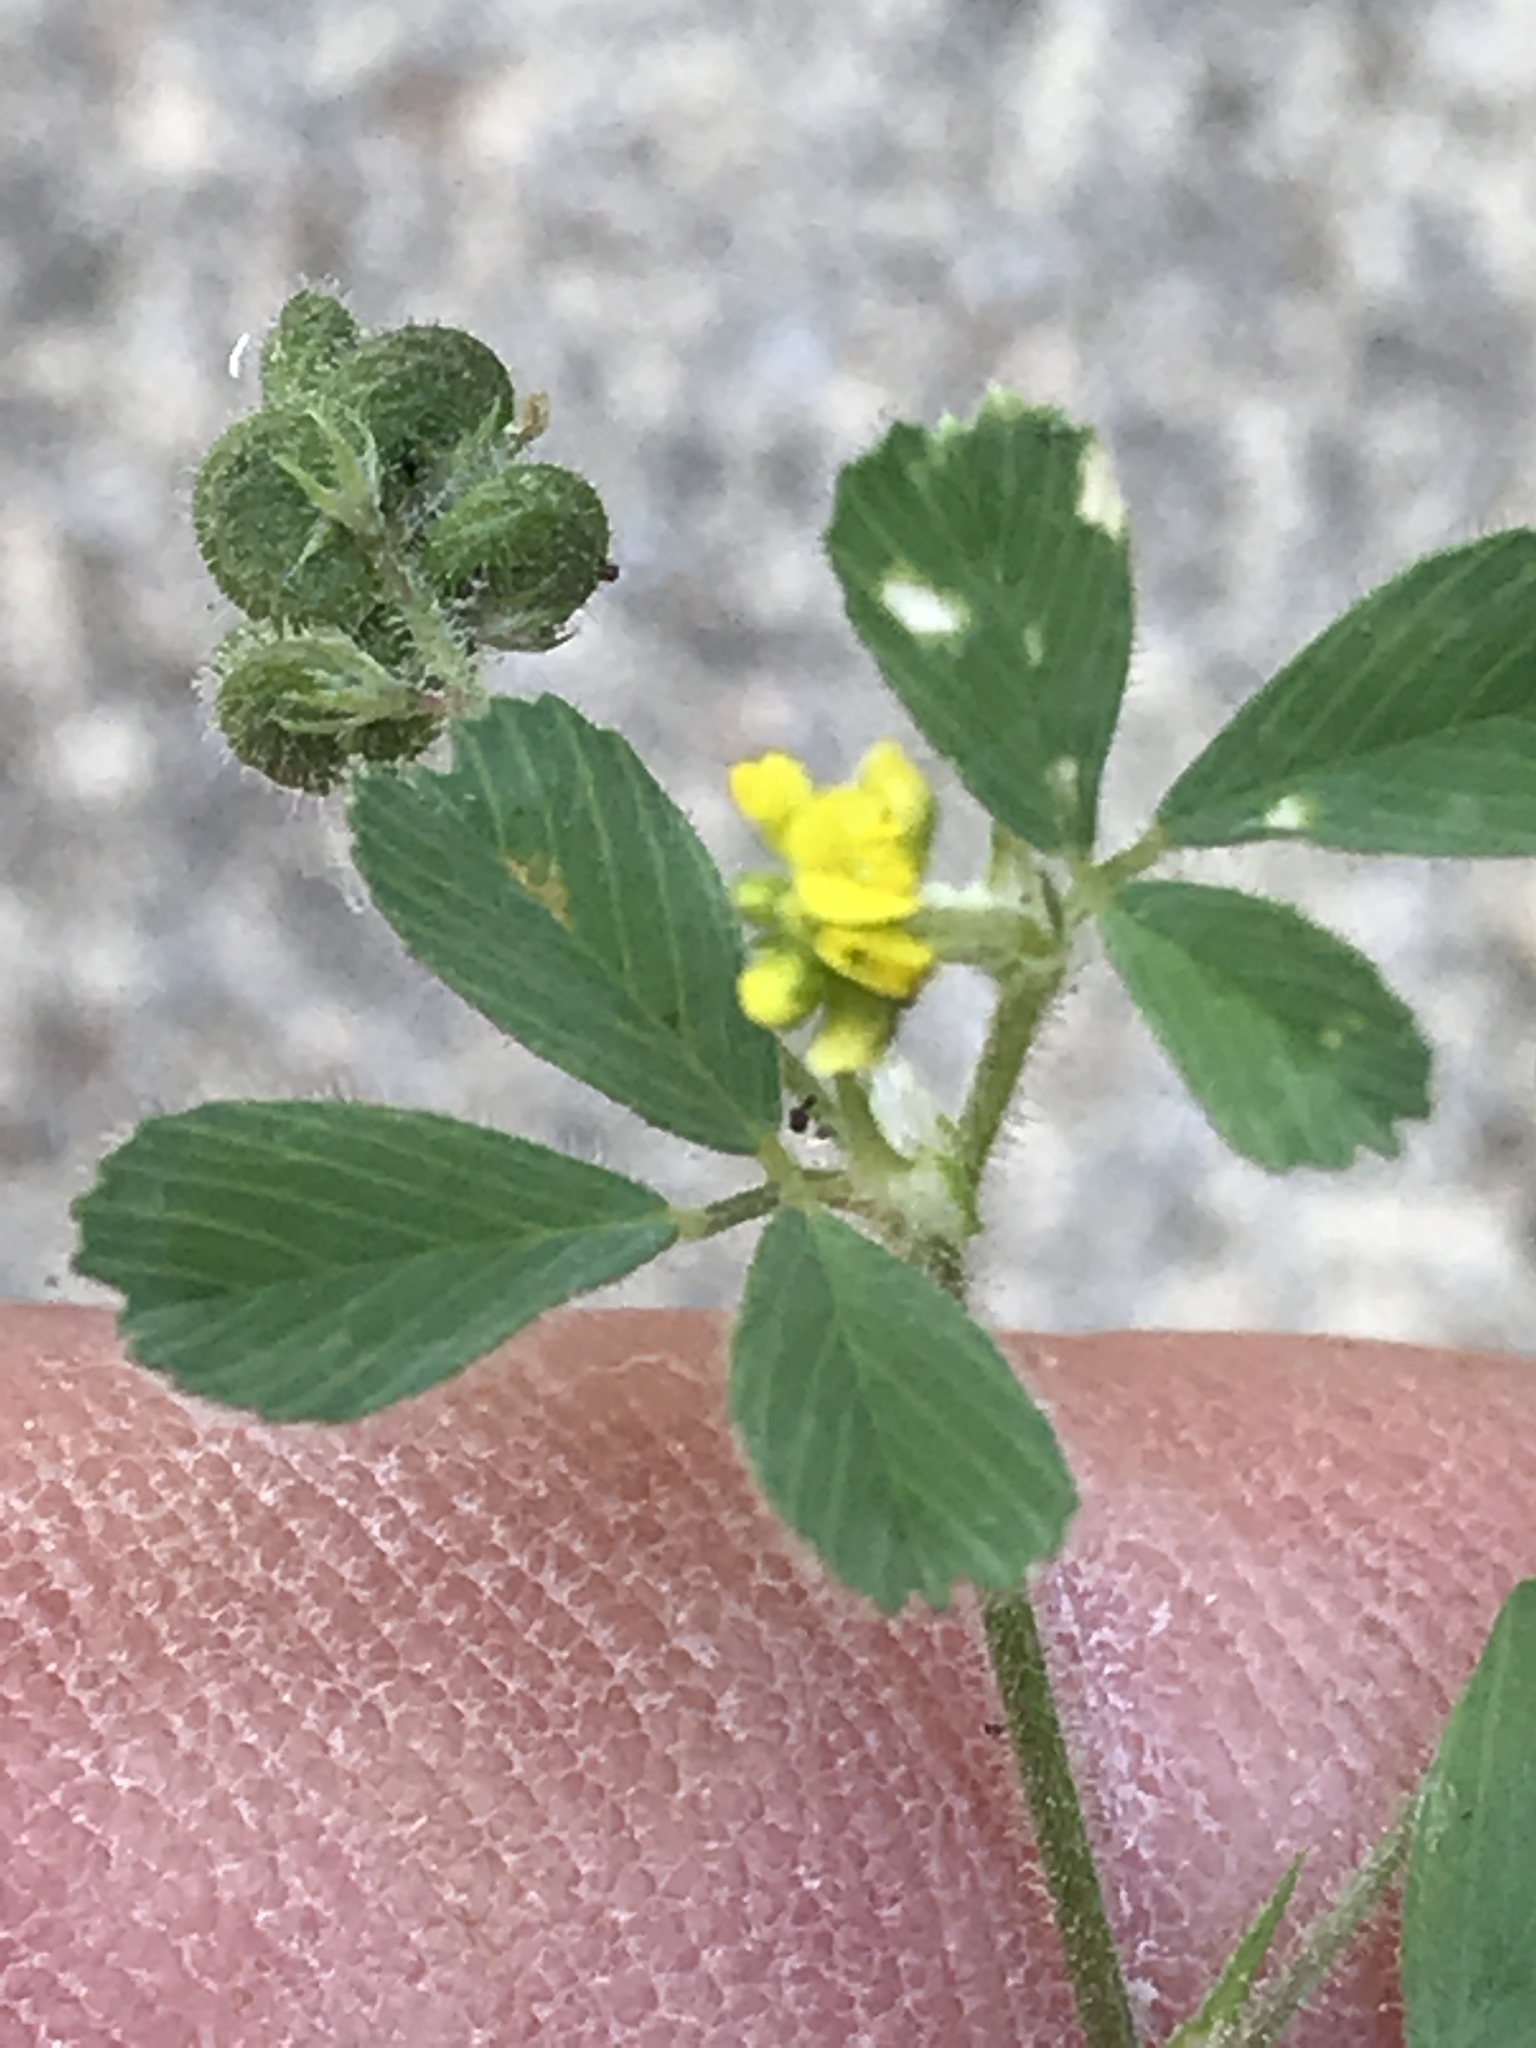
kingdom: Plantae
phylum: Tracheophyta
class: Magnoliopsida
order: Fabales
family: Fabaceae
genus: Medicago
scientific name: Medicago lupulina
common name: Black medick
